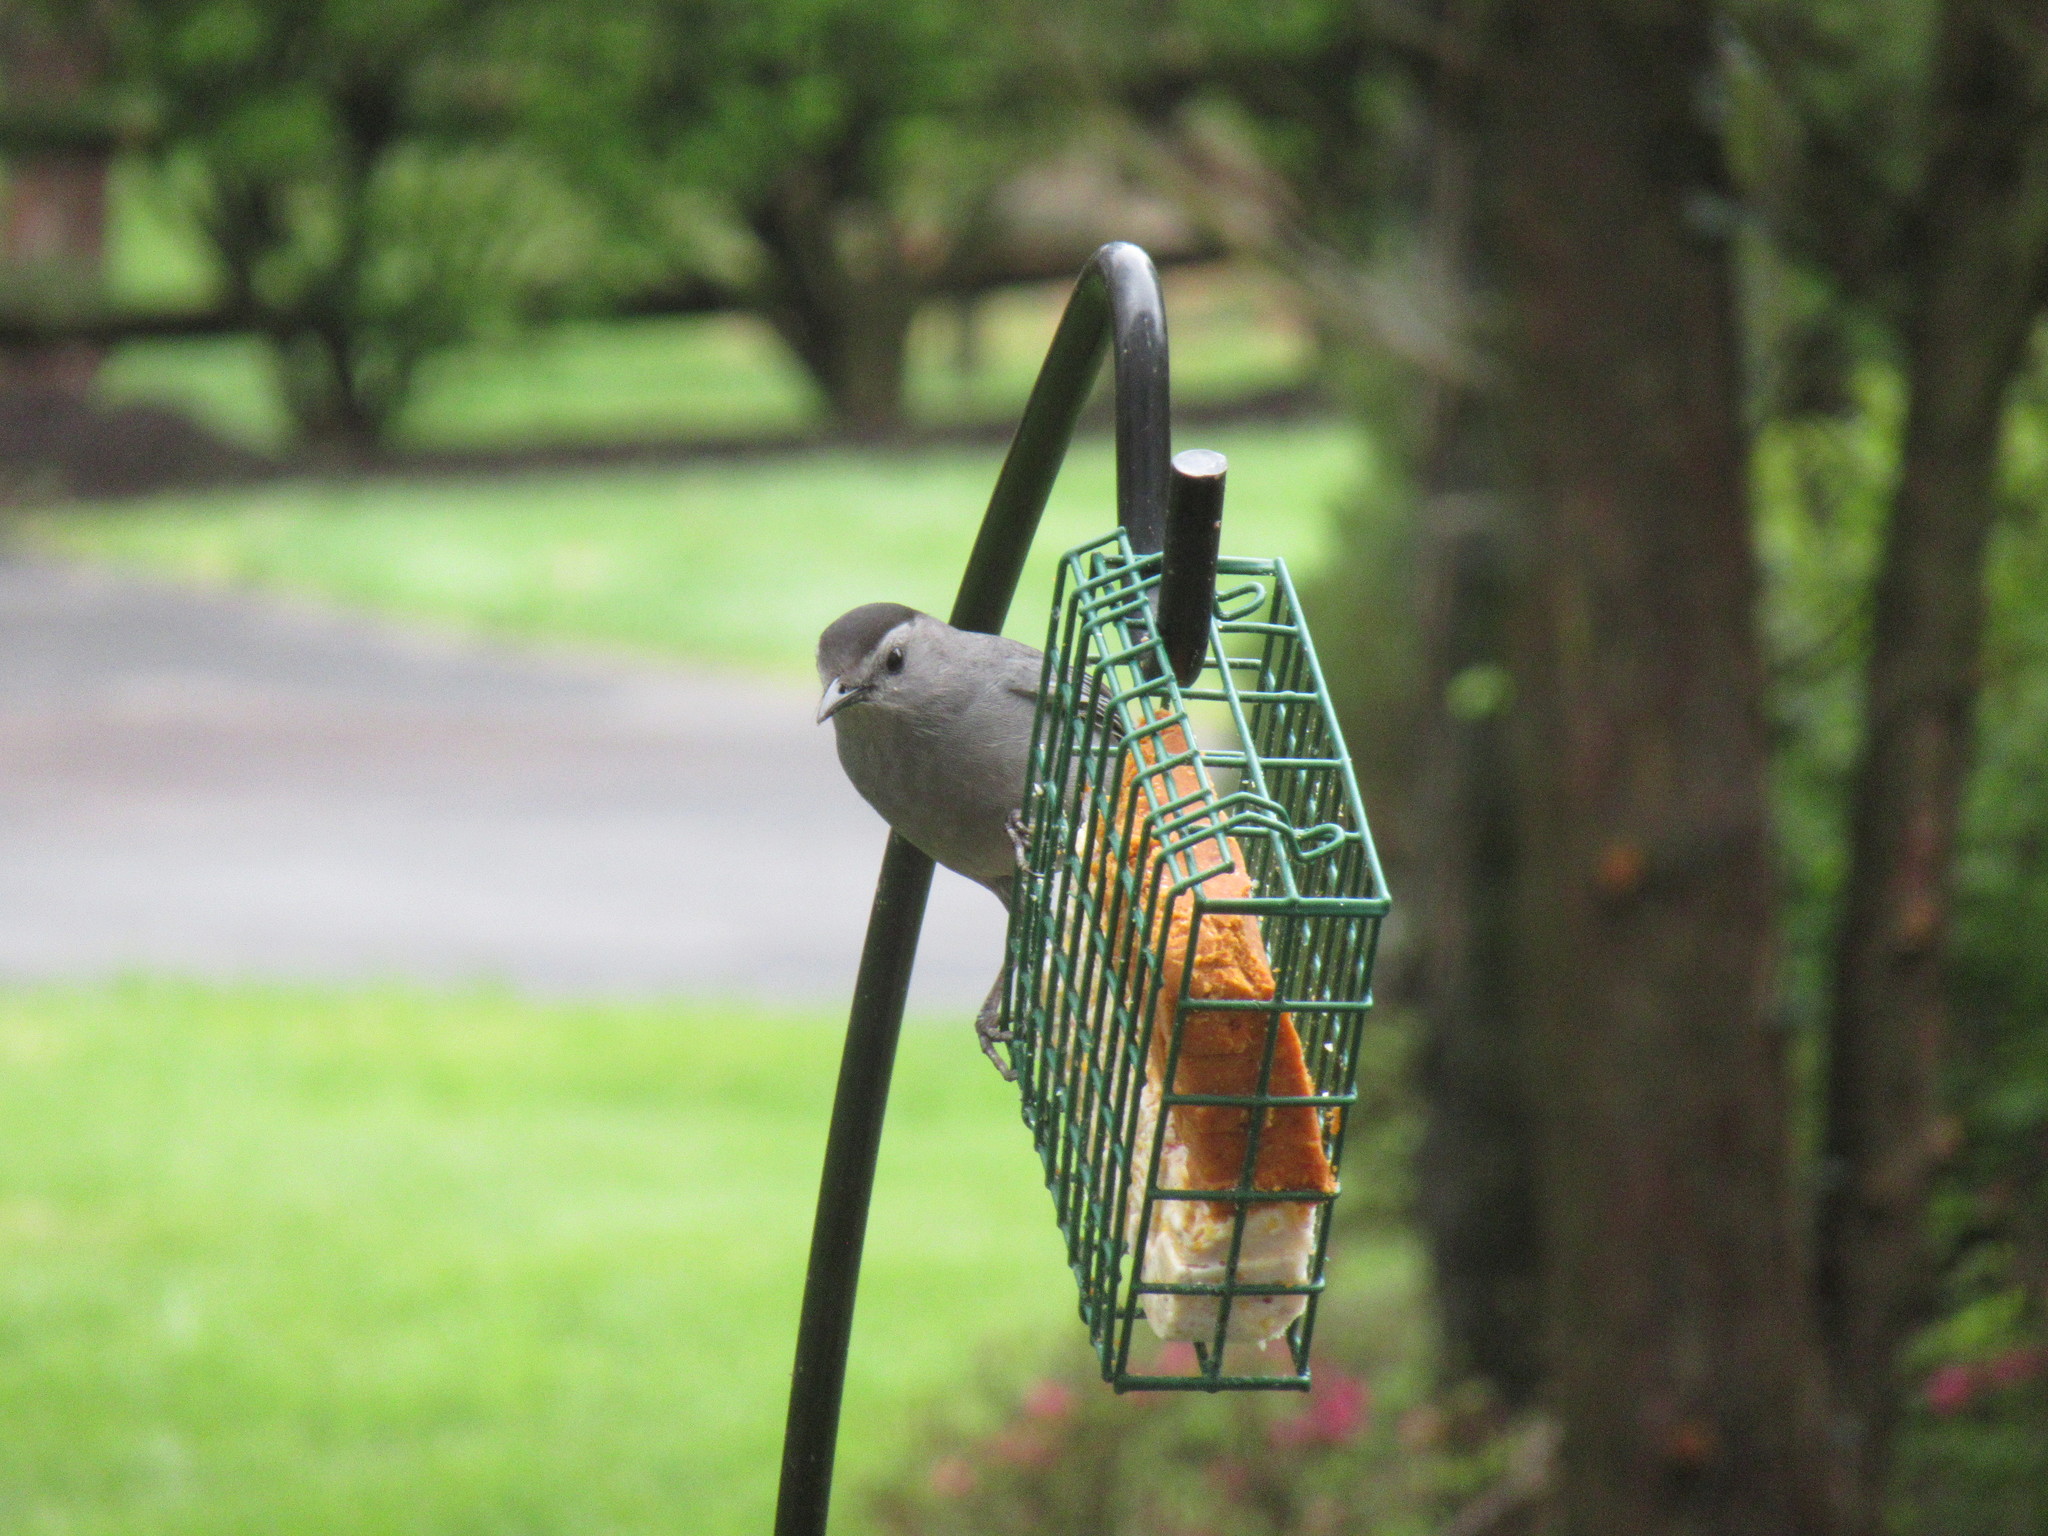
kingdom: Animalia
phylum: Chordata
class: Aves
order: Passeriformes
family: Mimidae
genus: Dumetella
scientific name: Dumetella carolinensis
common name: Gray catbird
